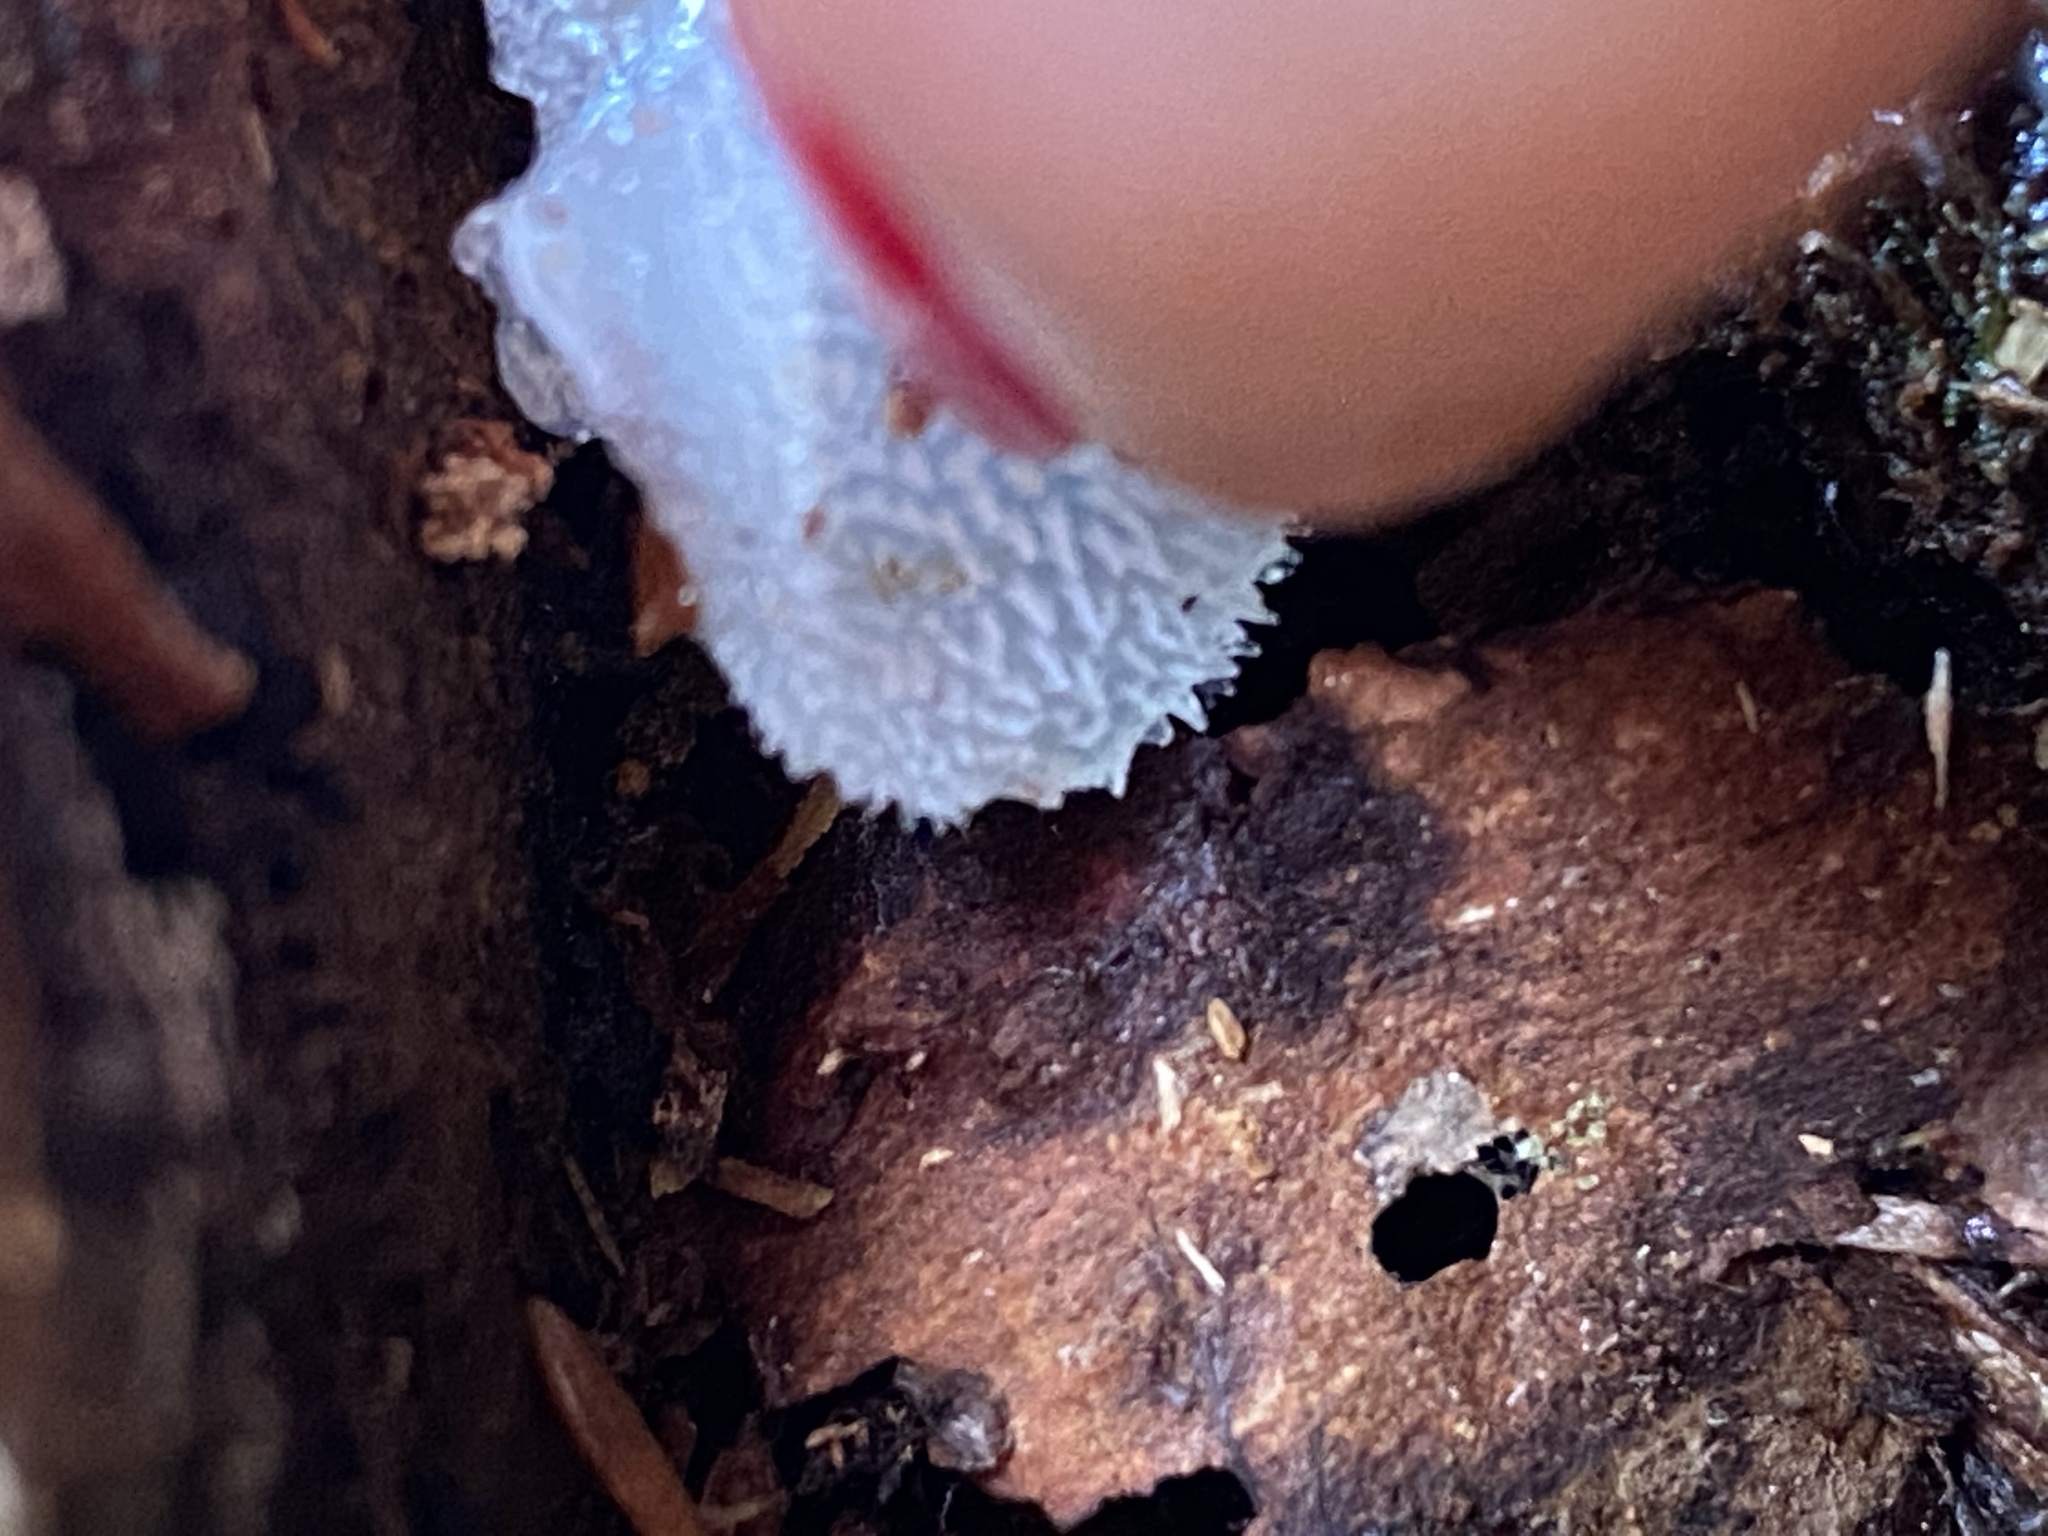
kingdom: Fungi
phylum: Basidiomycota
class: Agaricomycetes
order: Auriculariales
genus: Pseudohydnum
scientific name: Pseudohydnum gelatinosum
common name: Jelly tongue
